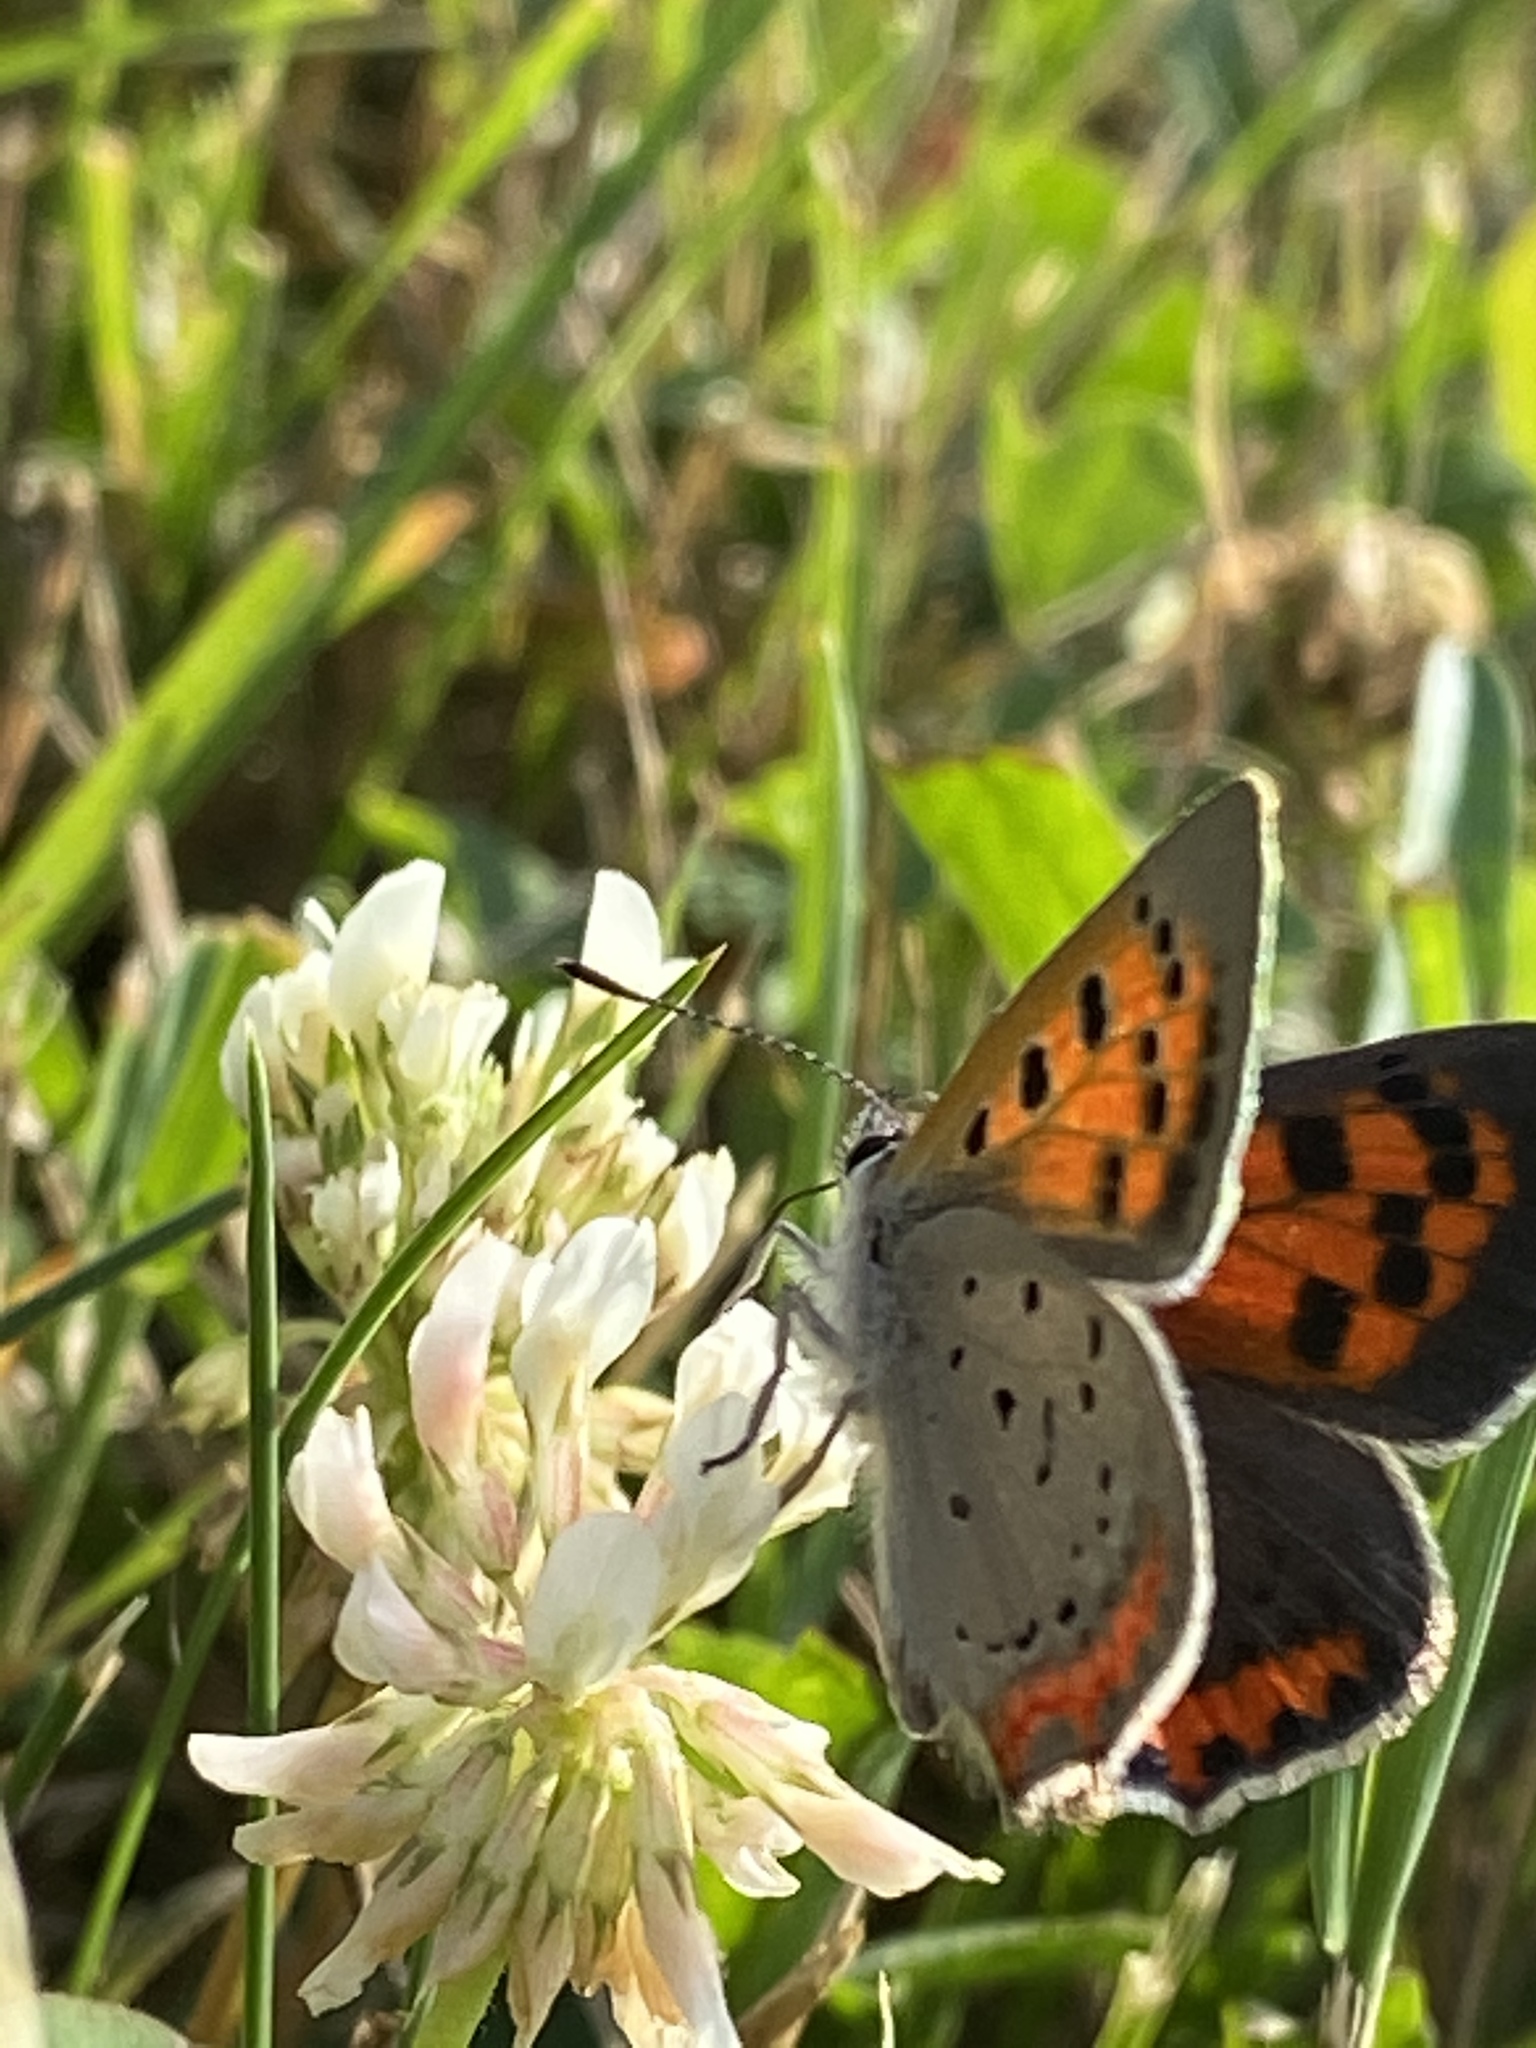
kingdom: Animalia
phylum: Arthropoda
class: Insecta
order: Lepidoptera
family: Lycaenidae
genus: Lycaena
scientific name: Lycaena hypophlaeas
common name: American copper
